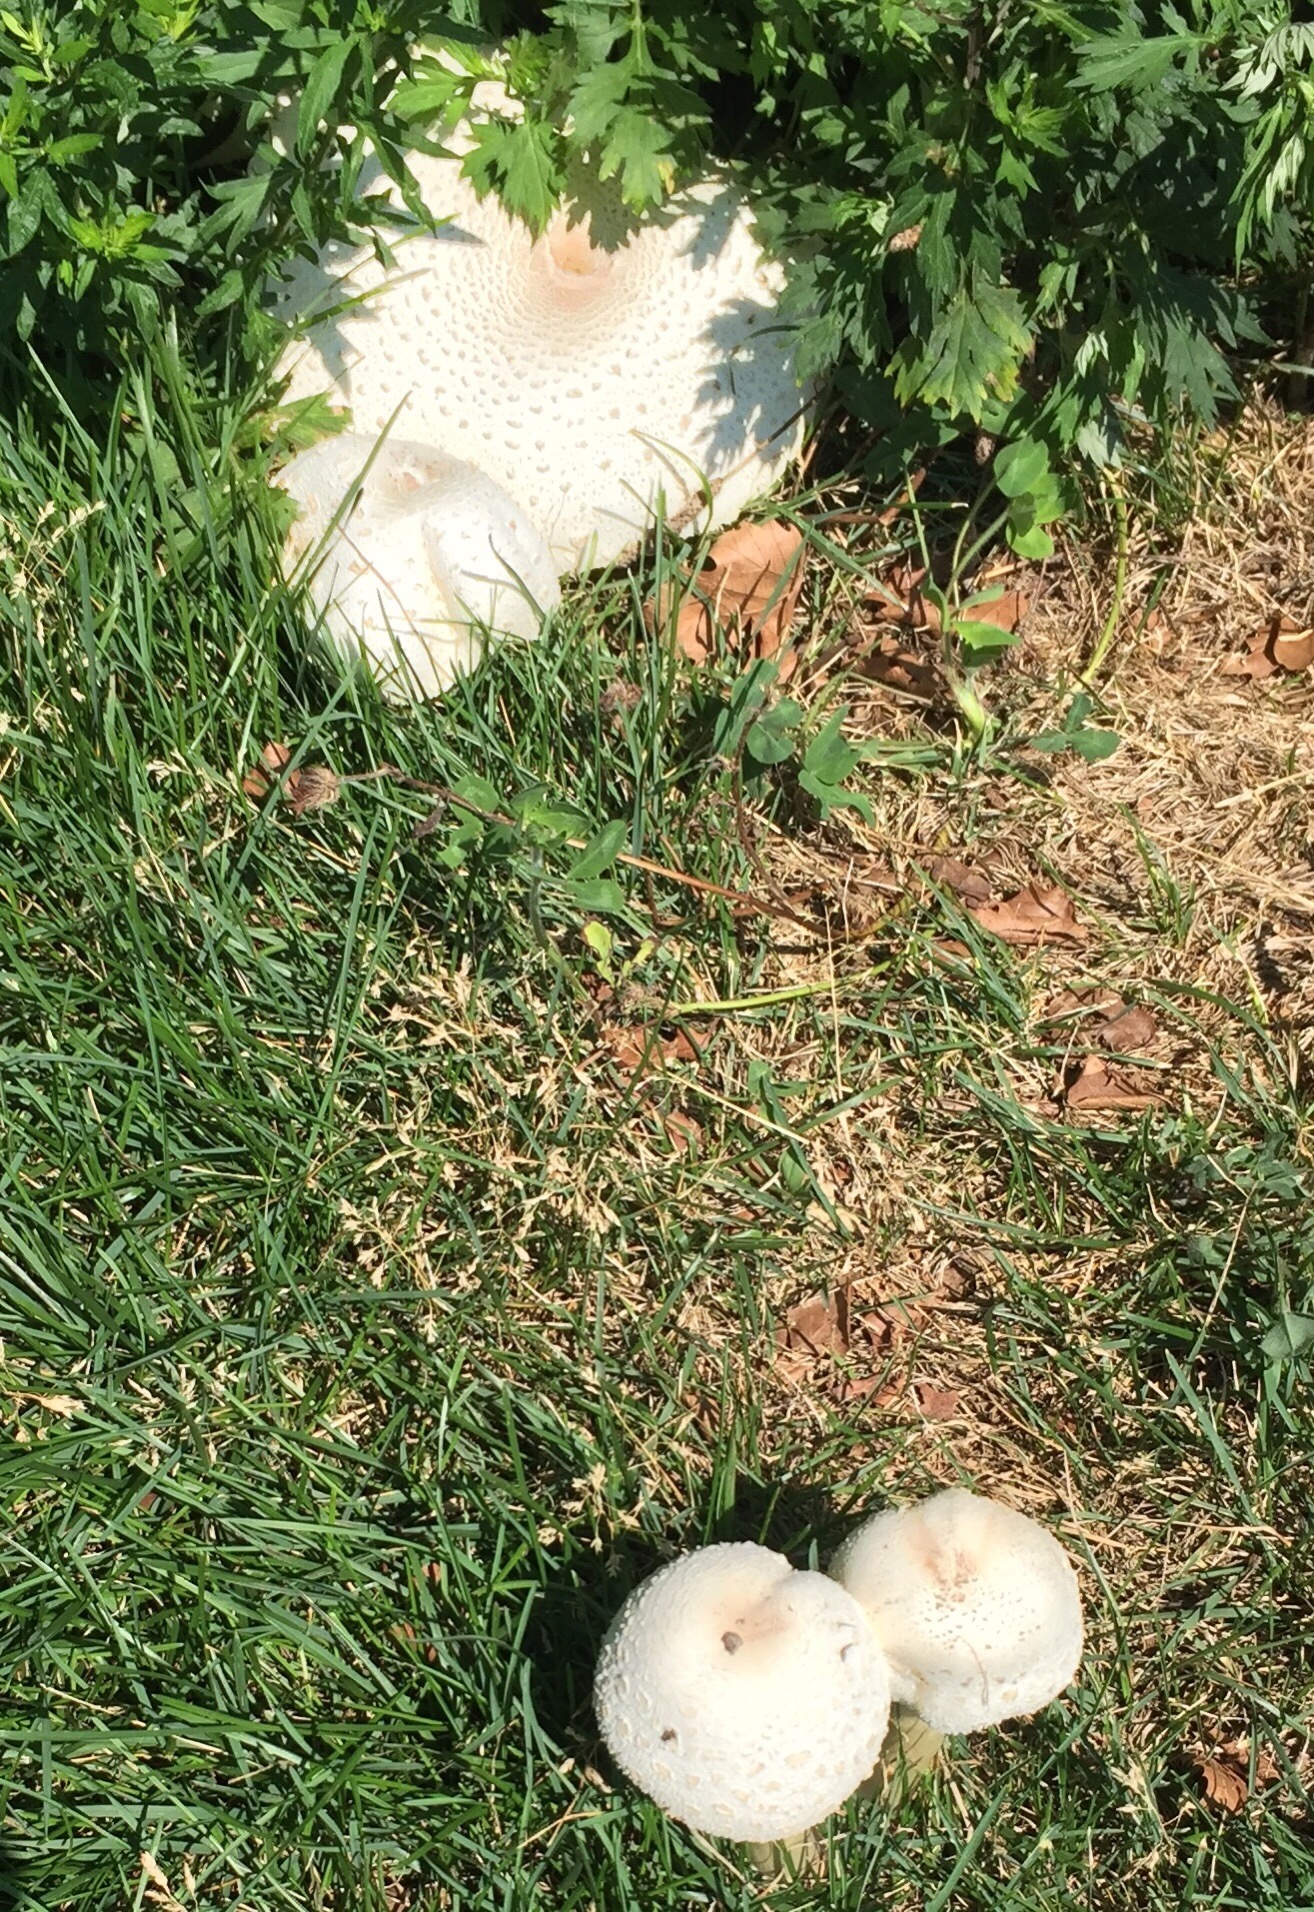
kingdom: Fungi
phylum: Basidiomycota
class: Agaricomycetes
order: Agaricales
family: Agaricaceae
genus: Chlorophyllum
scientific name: Chlorophyllum molybdites
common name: False parasol
